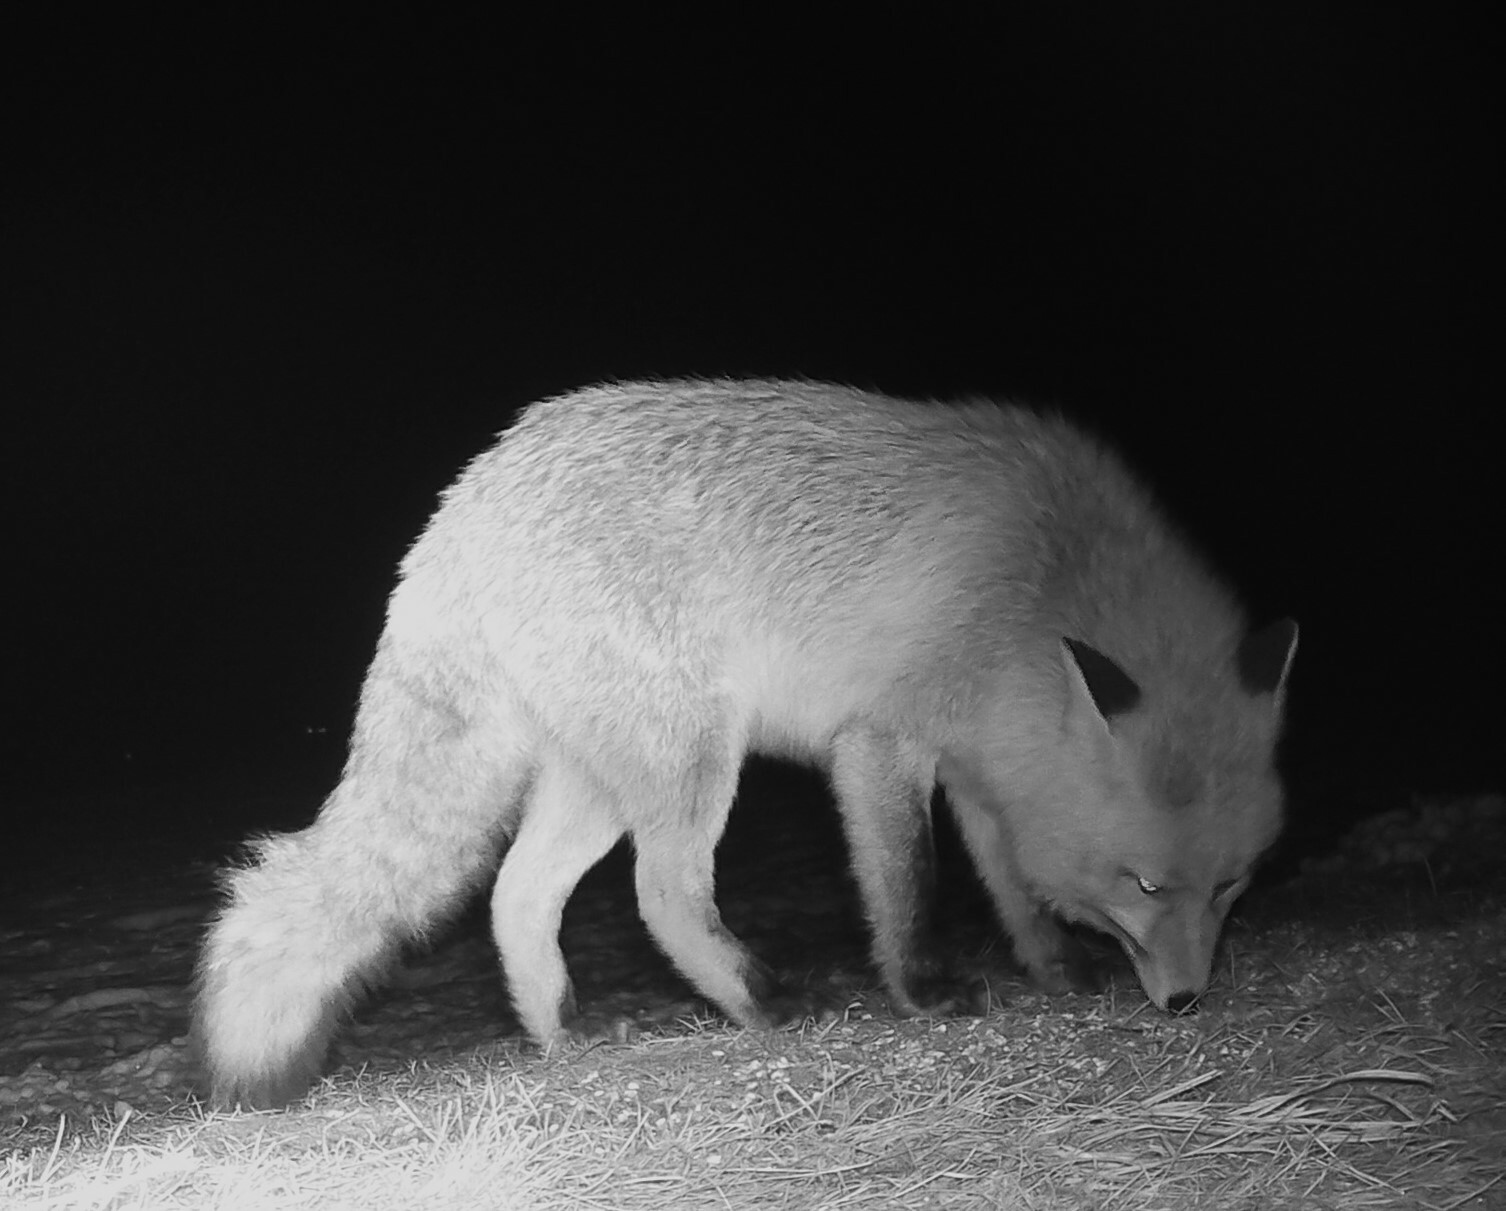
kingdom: Animalia
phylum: Chordata
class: Mammalia
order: Carnivora
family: Canidae
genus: Vulpes
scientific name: Vulpes vulpes
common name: Red fox
